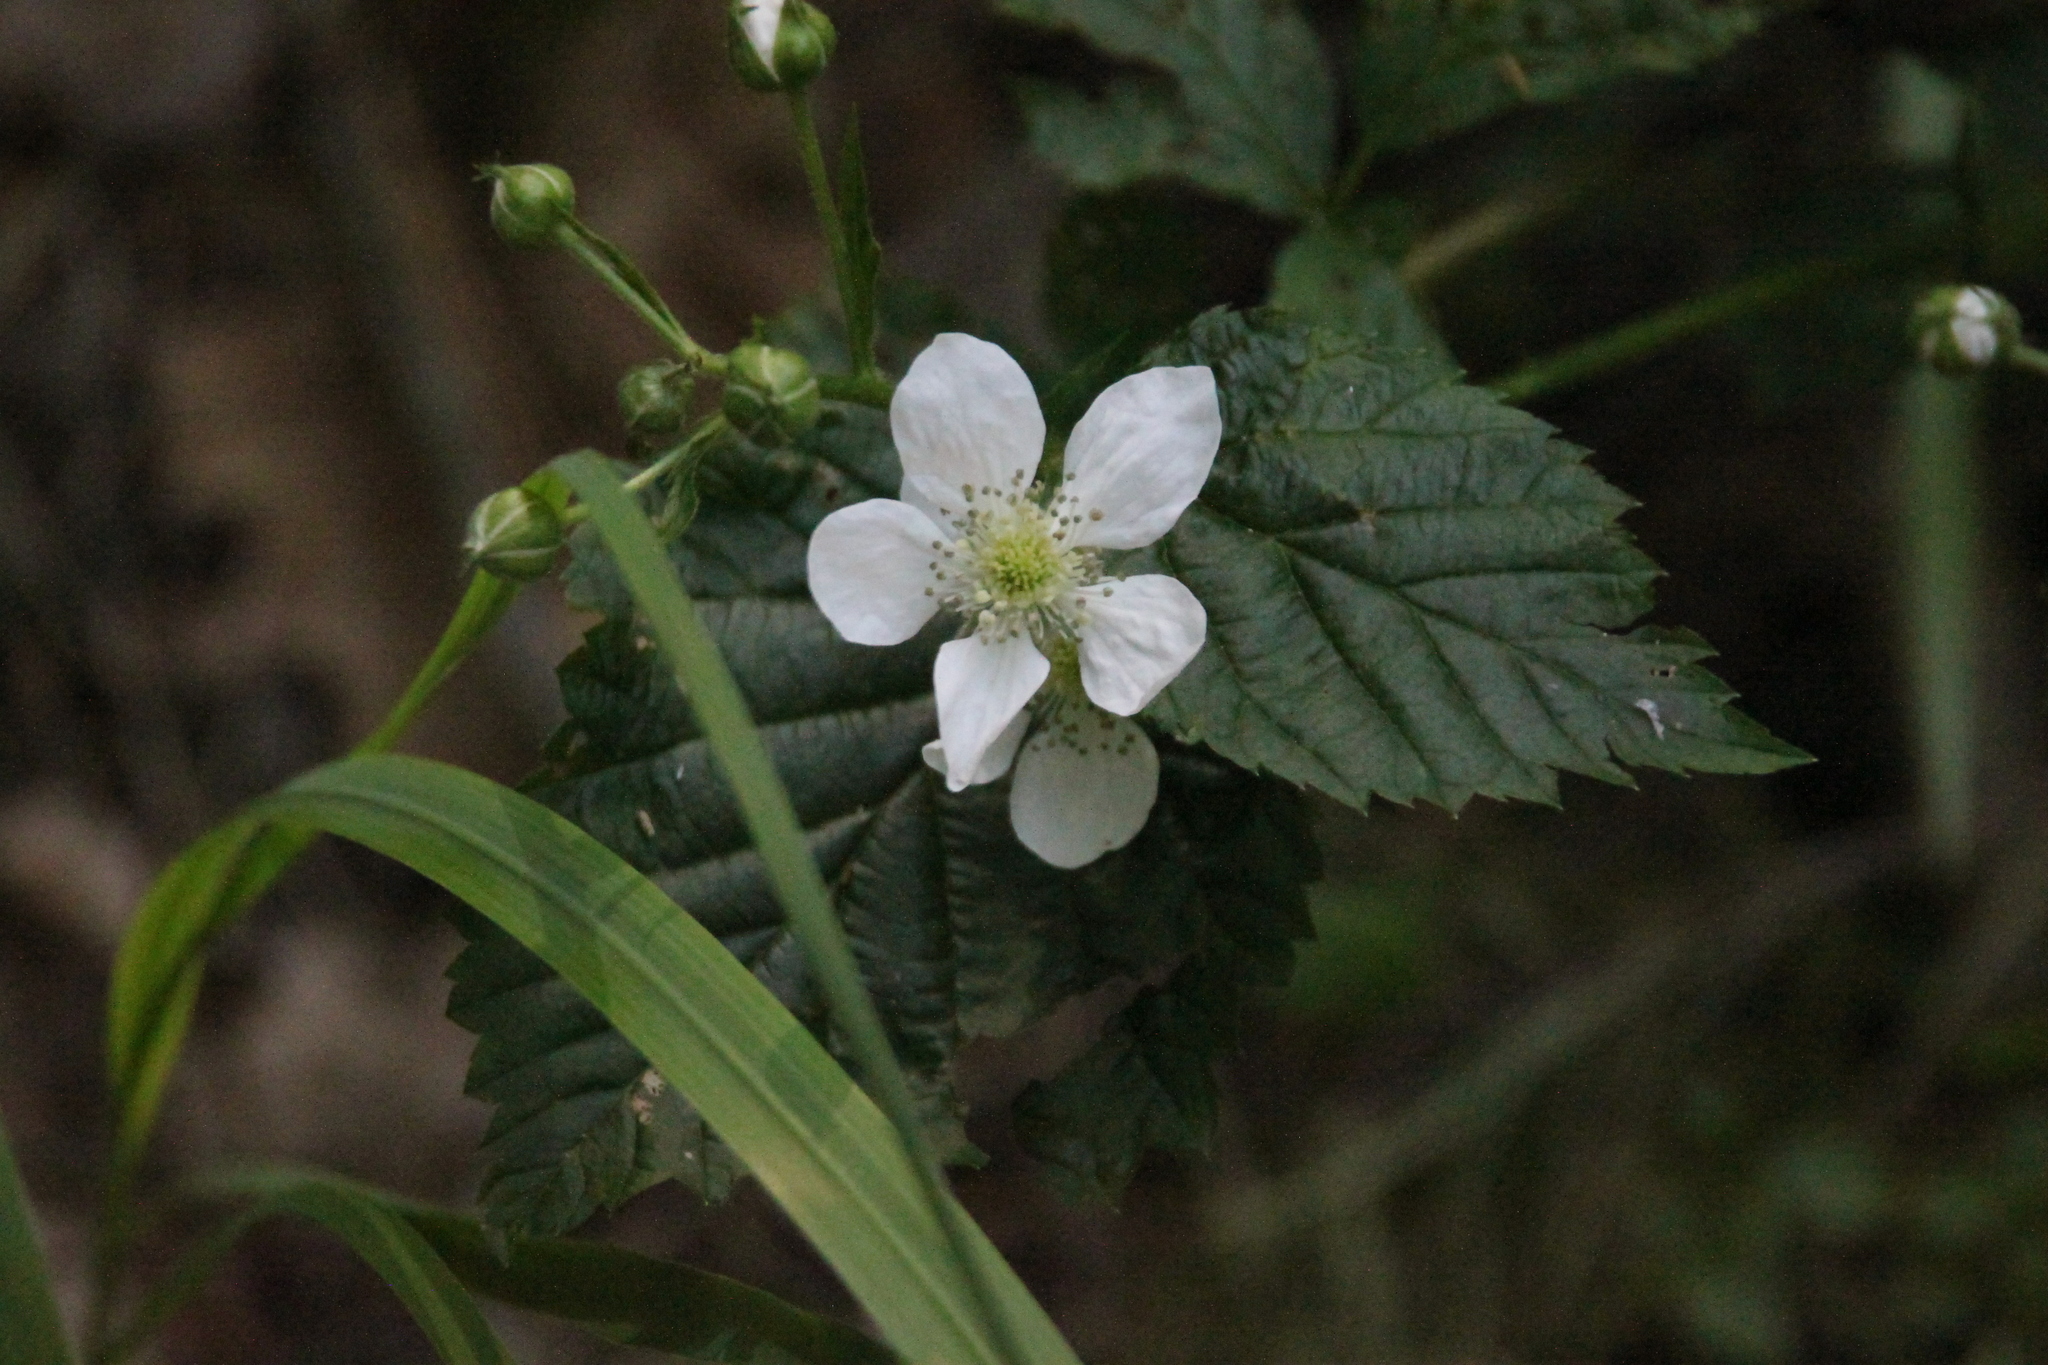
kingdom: Plantae
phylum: Tracheophyta
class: Magnoliopsida
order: Rosales
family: Rosaceae
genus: Rubus
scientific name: Rubus polonicus
